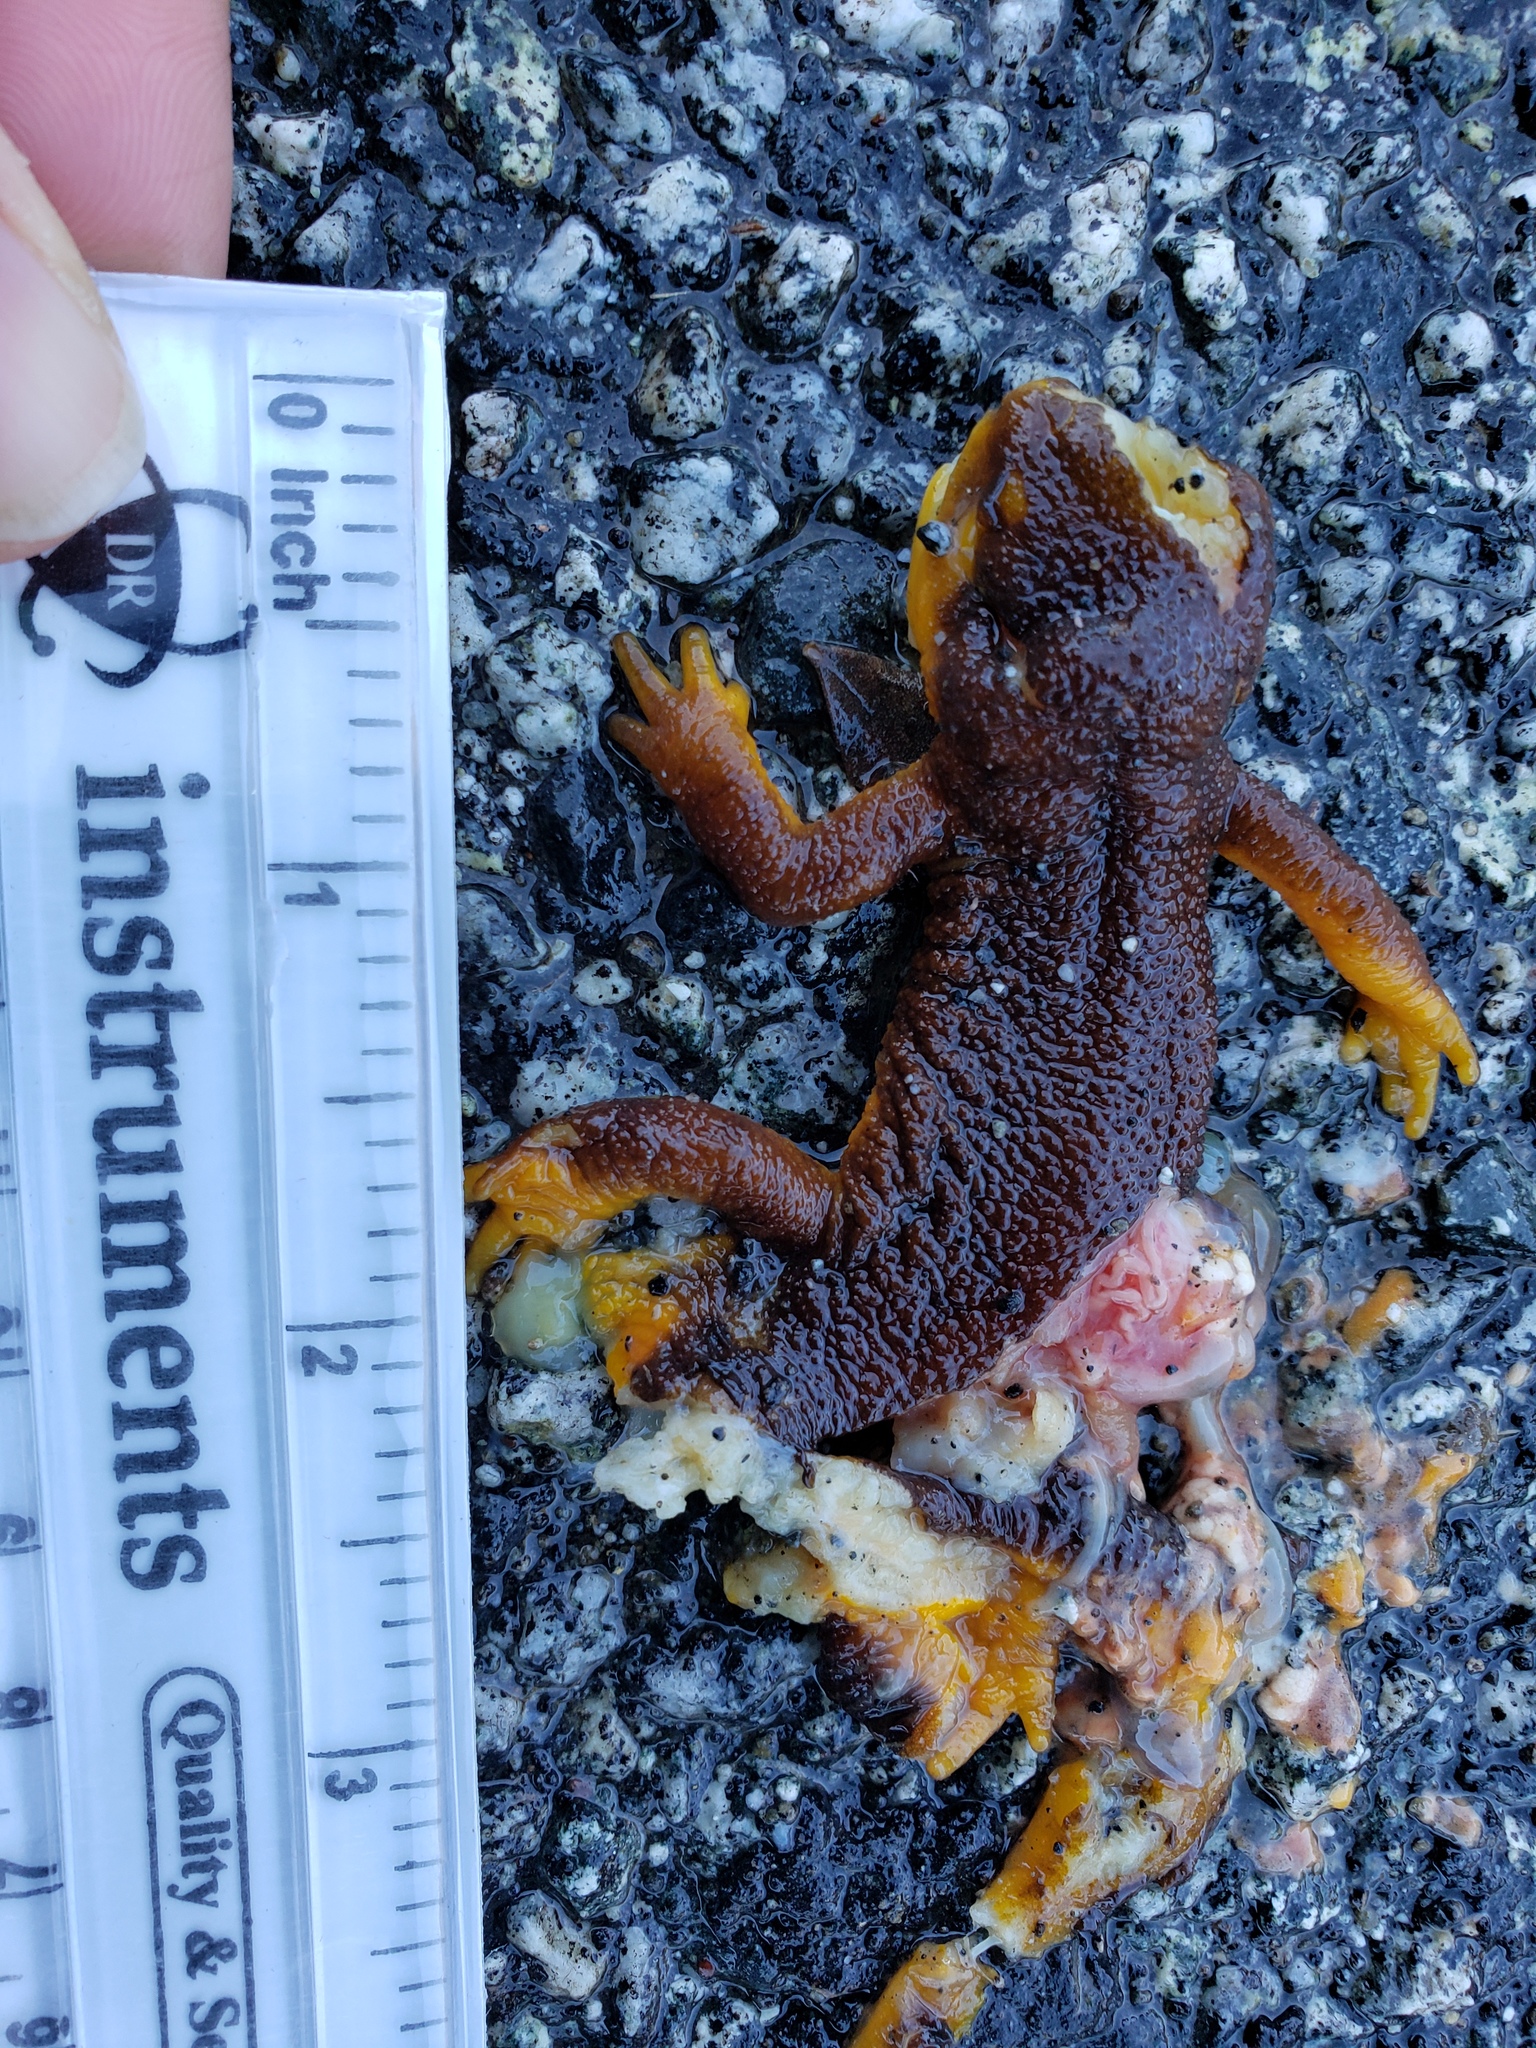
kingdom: Animalia
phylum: Chordata
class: Amphibia
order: Caudata
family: Salamandridae
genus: Taricha
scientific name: Taricha
